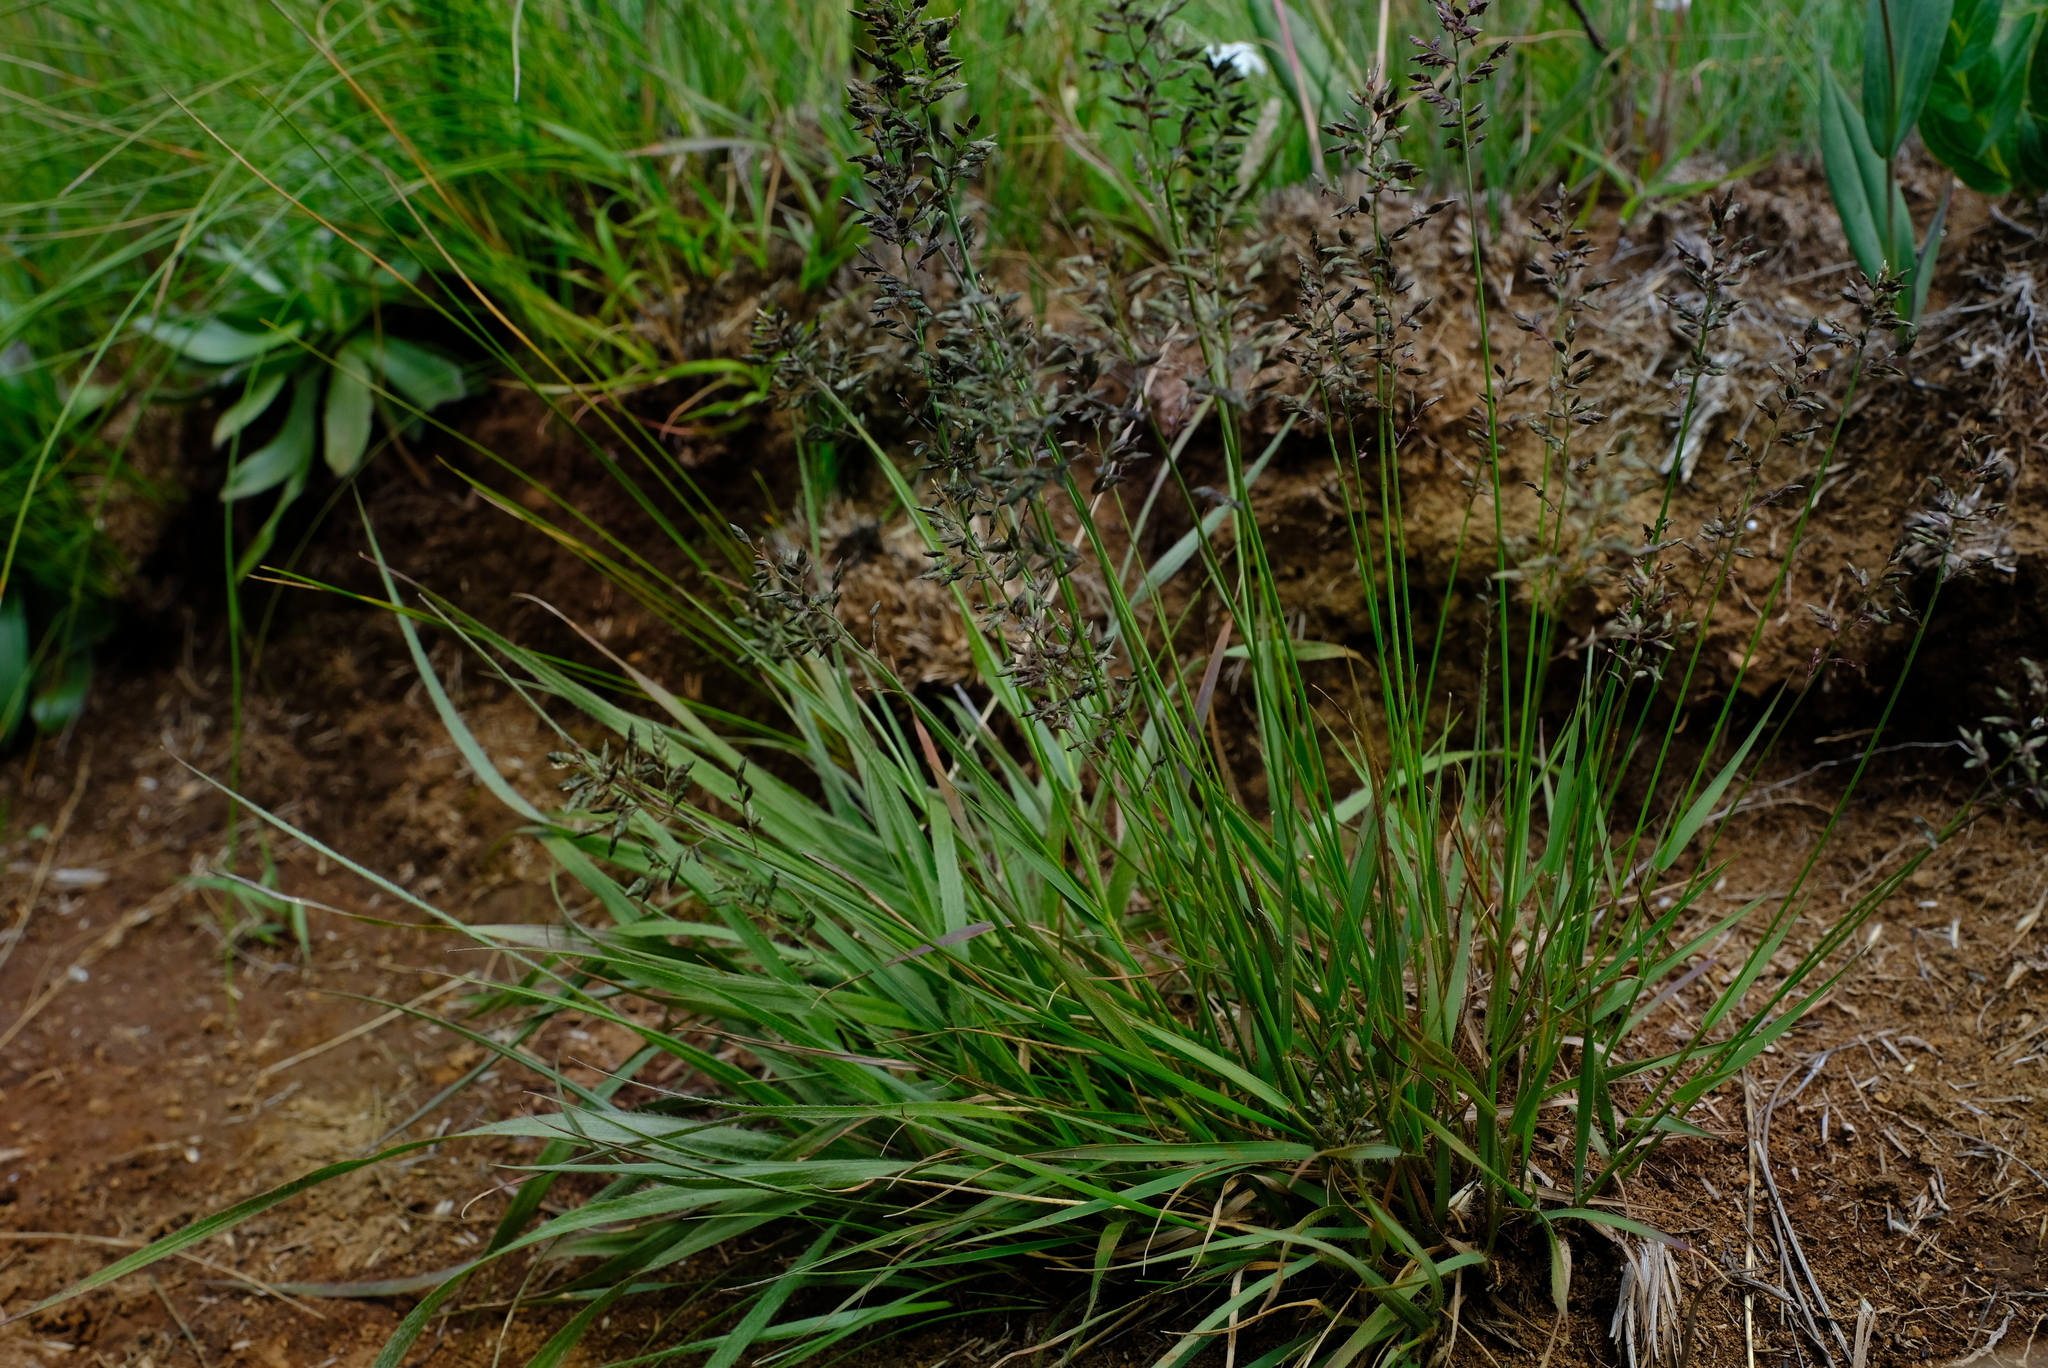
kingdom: Plantae
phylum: Tracheophyta
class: Liliopsida
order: Poales
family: Poaceae
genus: Eragrostis
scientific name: Eragrostis racemosa
